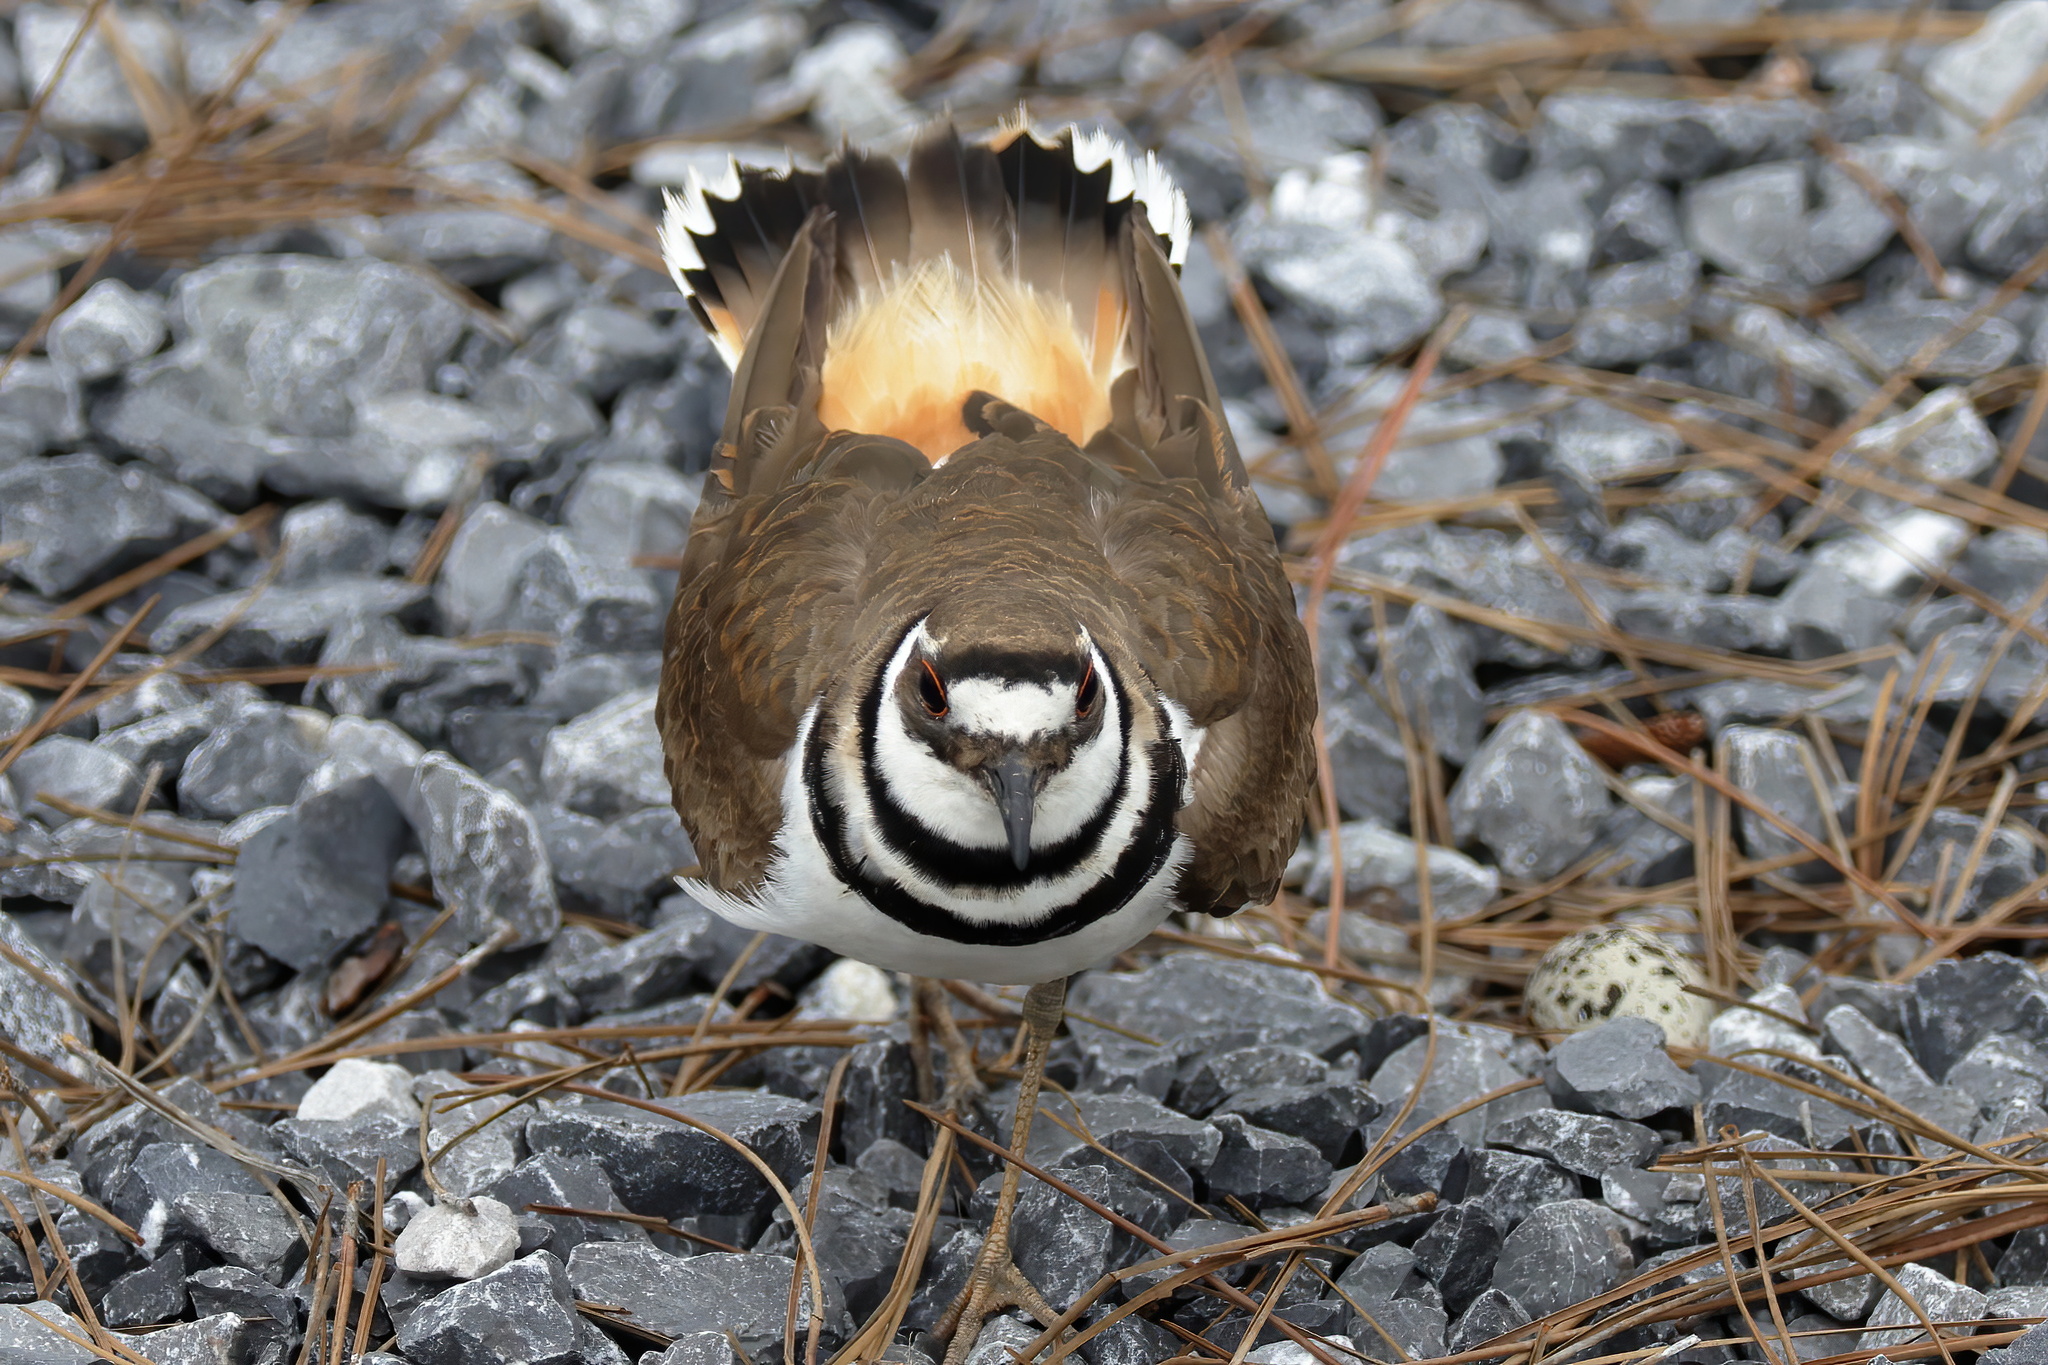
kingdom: Animalia
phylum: Chordata
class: Aves
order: Charadriiformes
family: Charadriidae
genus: Charadrius
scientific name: Charadrius vociferus
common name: Killdeer
